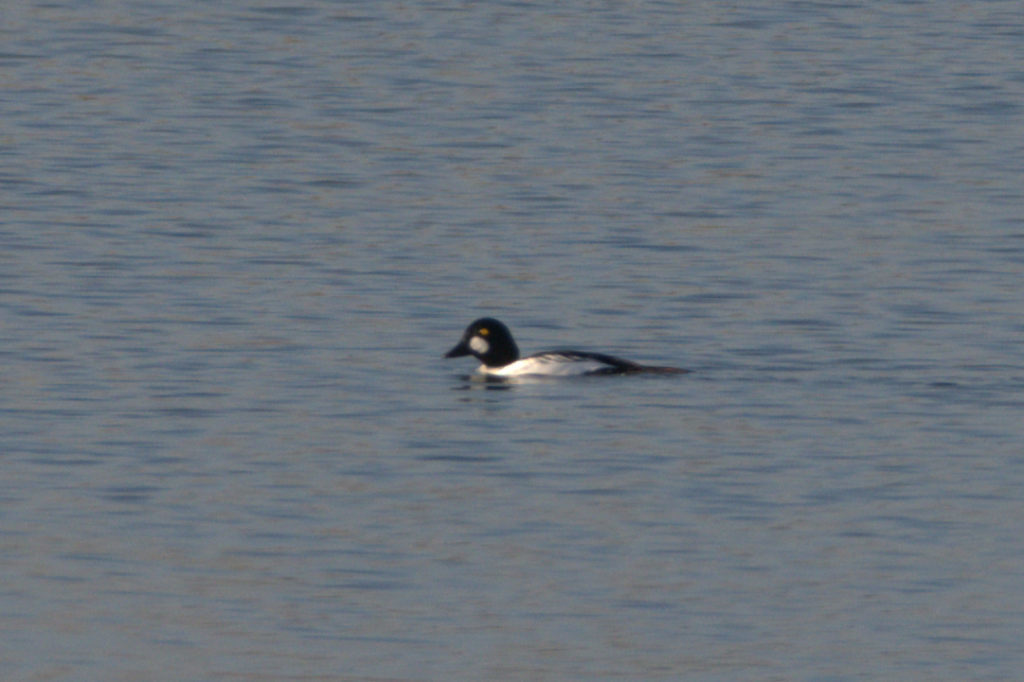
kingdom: Animalia
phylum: Chordata
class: Aves
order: Anseriformes
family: Anatidae
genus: Bucephala
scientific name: Bucephala clangula
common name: Common goldeneye
